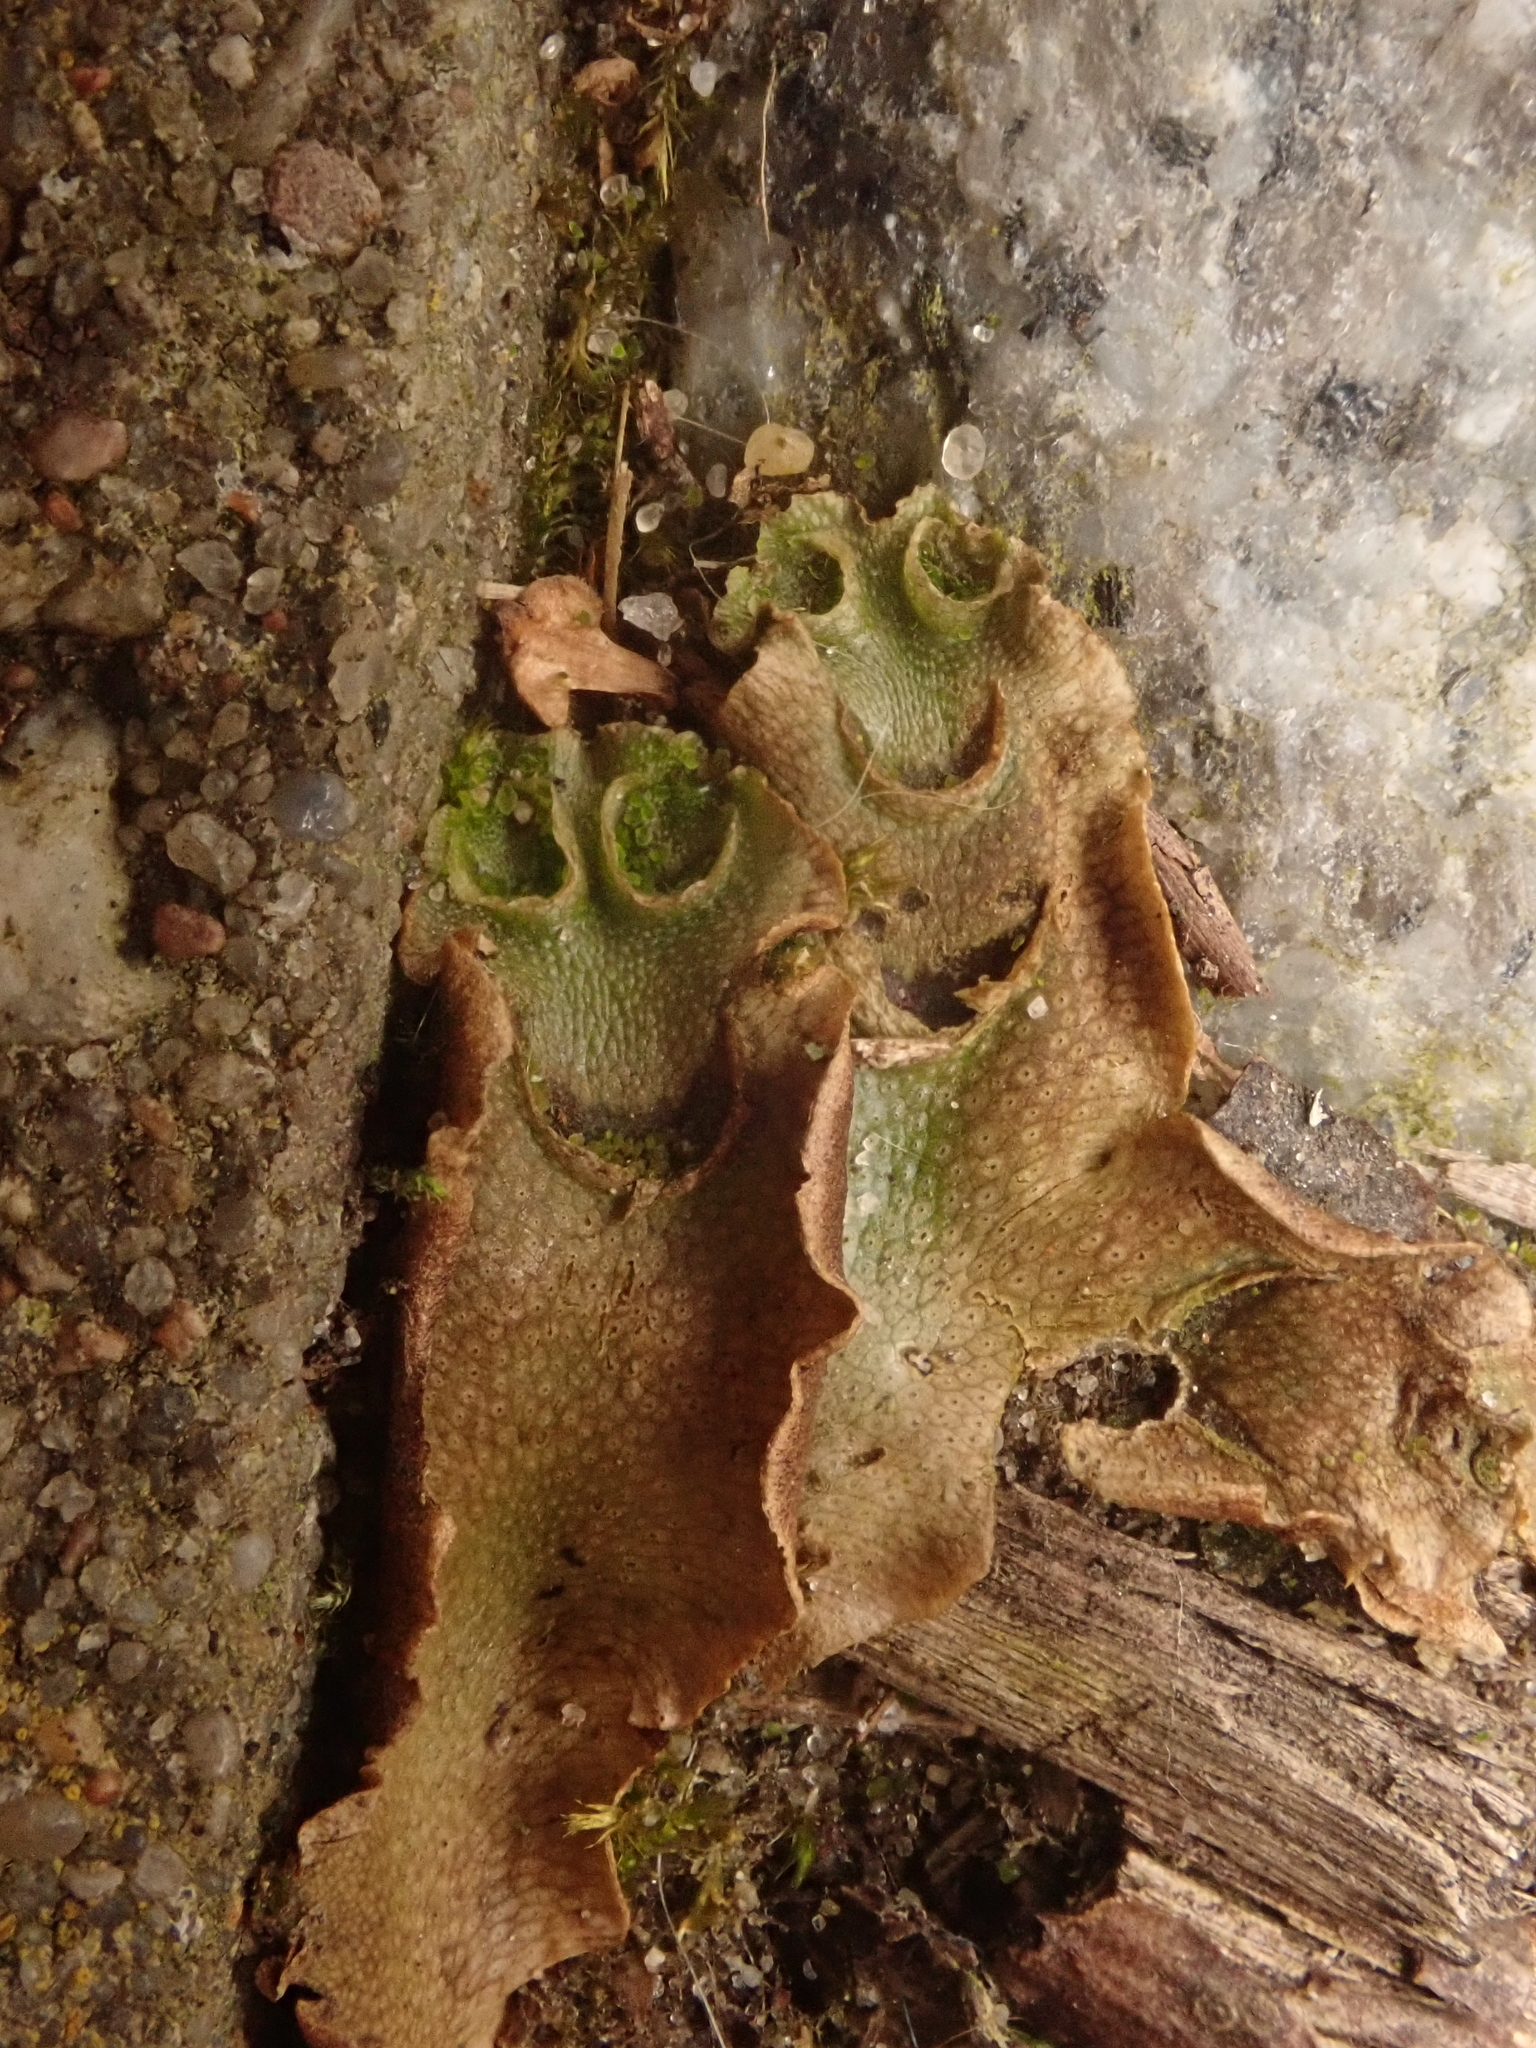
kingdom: Plantae
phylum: Marchantiophyta
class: Marchantiopsida
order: Lunulariales
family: Lunulariaceae
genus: Lunularia
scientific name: Lunularia cruciata
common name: Crescent-cup liverwort
